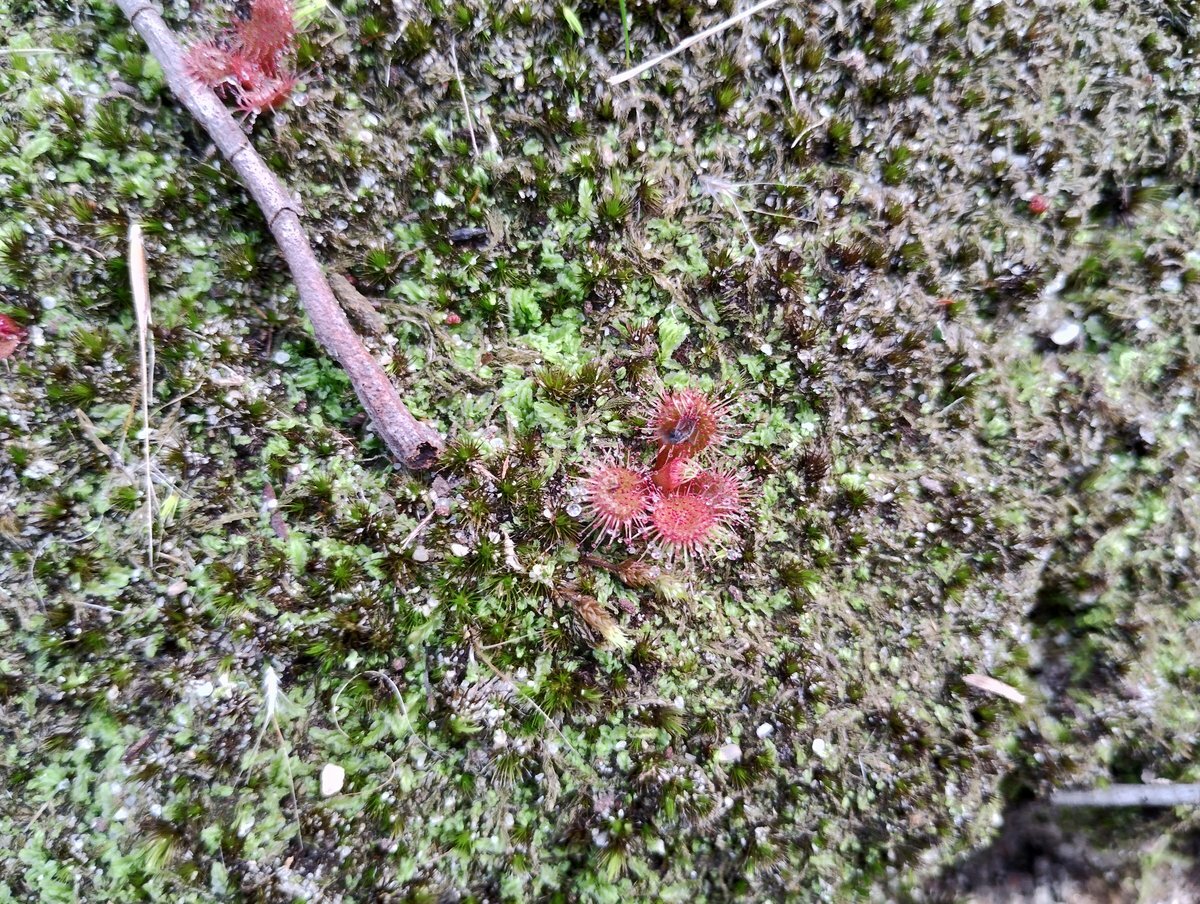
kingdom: Plantae
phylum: Tracheophyta
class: Magnoliopsida
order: Caryophyllales
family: Droseraceae
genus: Drosera
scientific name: Drosera aberrans
